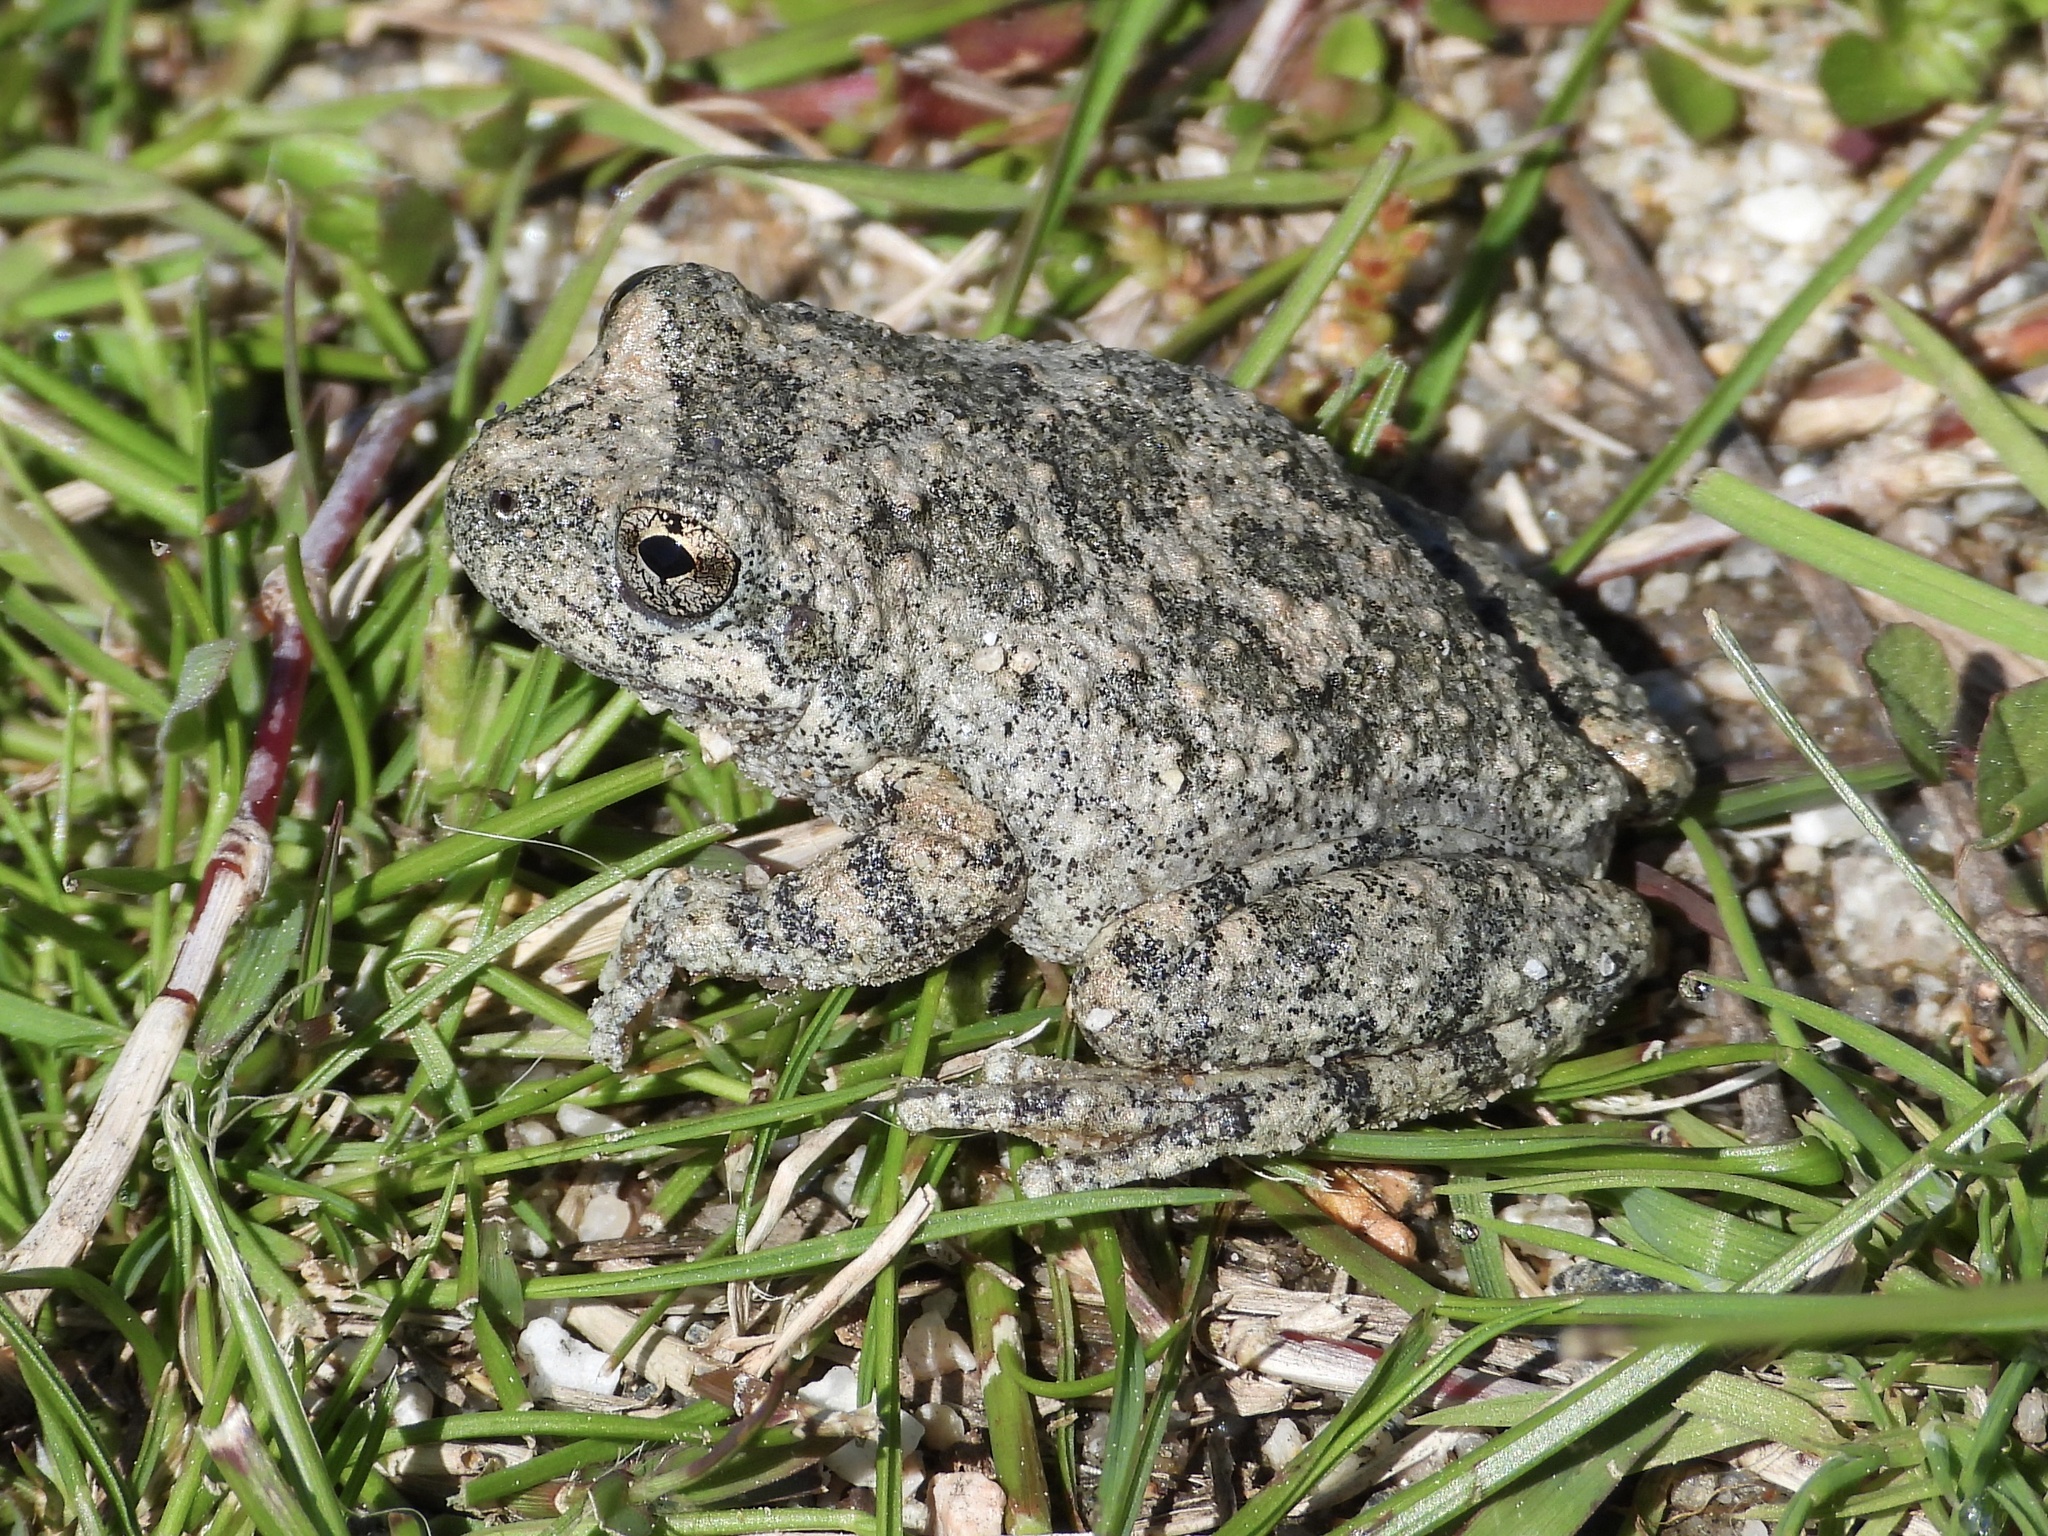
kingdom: Animalia
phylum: Chordata
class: Amphibia
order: Anura
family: Hylidae
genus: Pseudacris
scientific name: Pseudacris cadaverina
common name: California chorus frog
